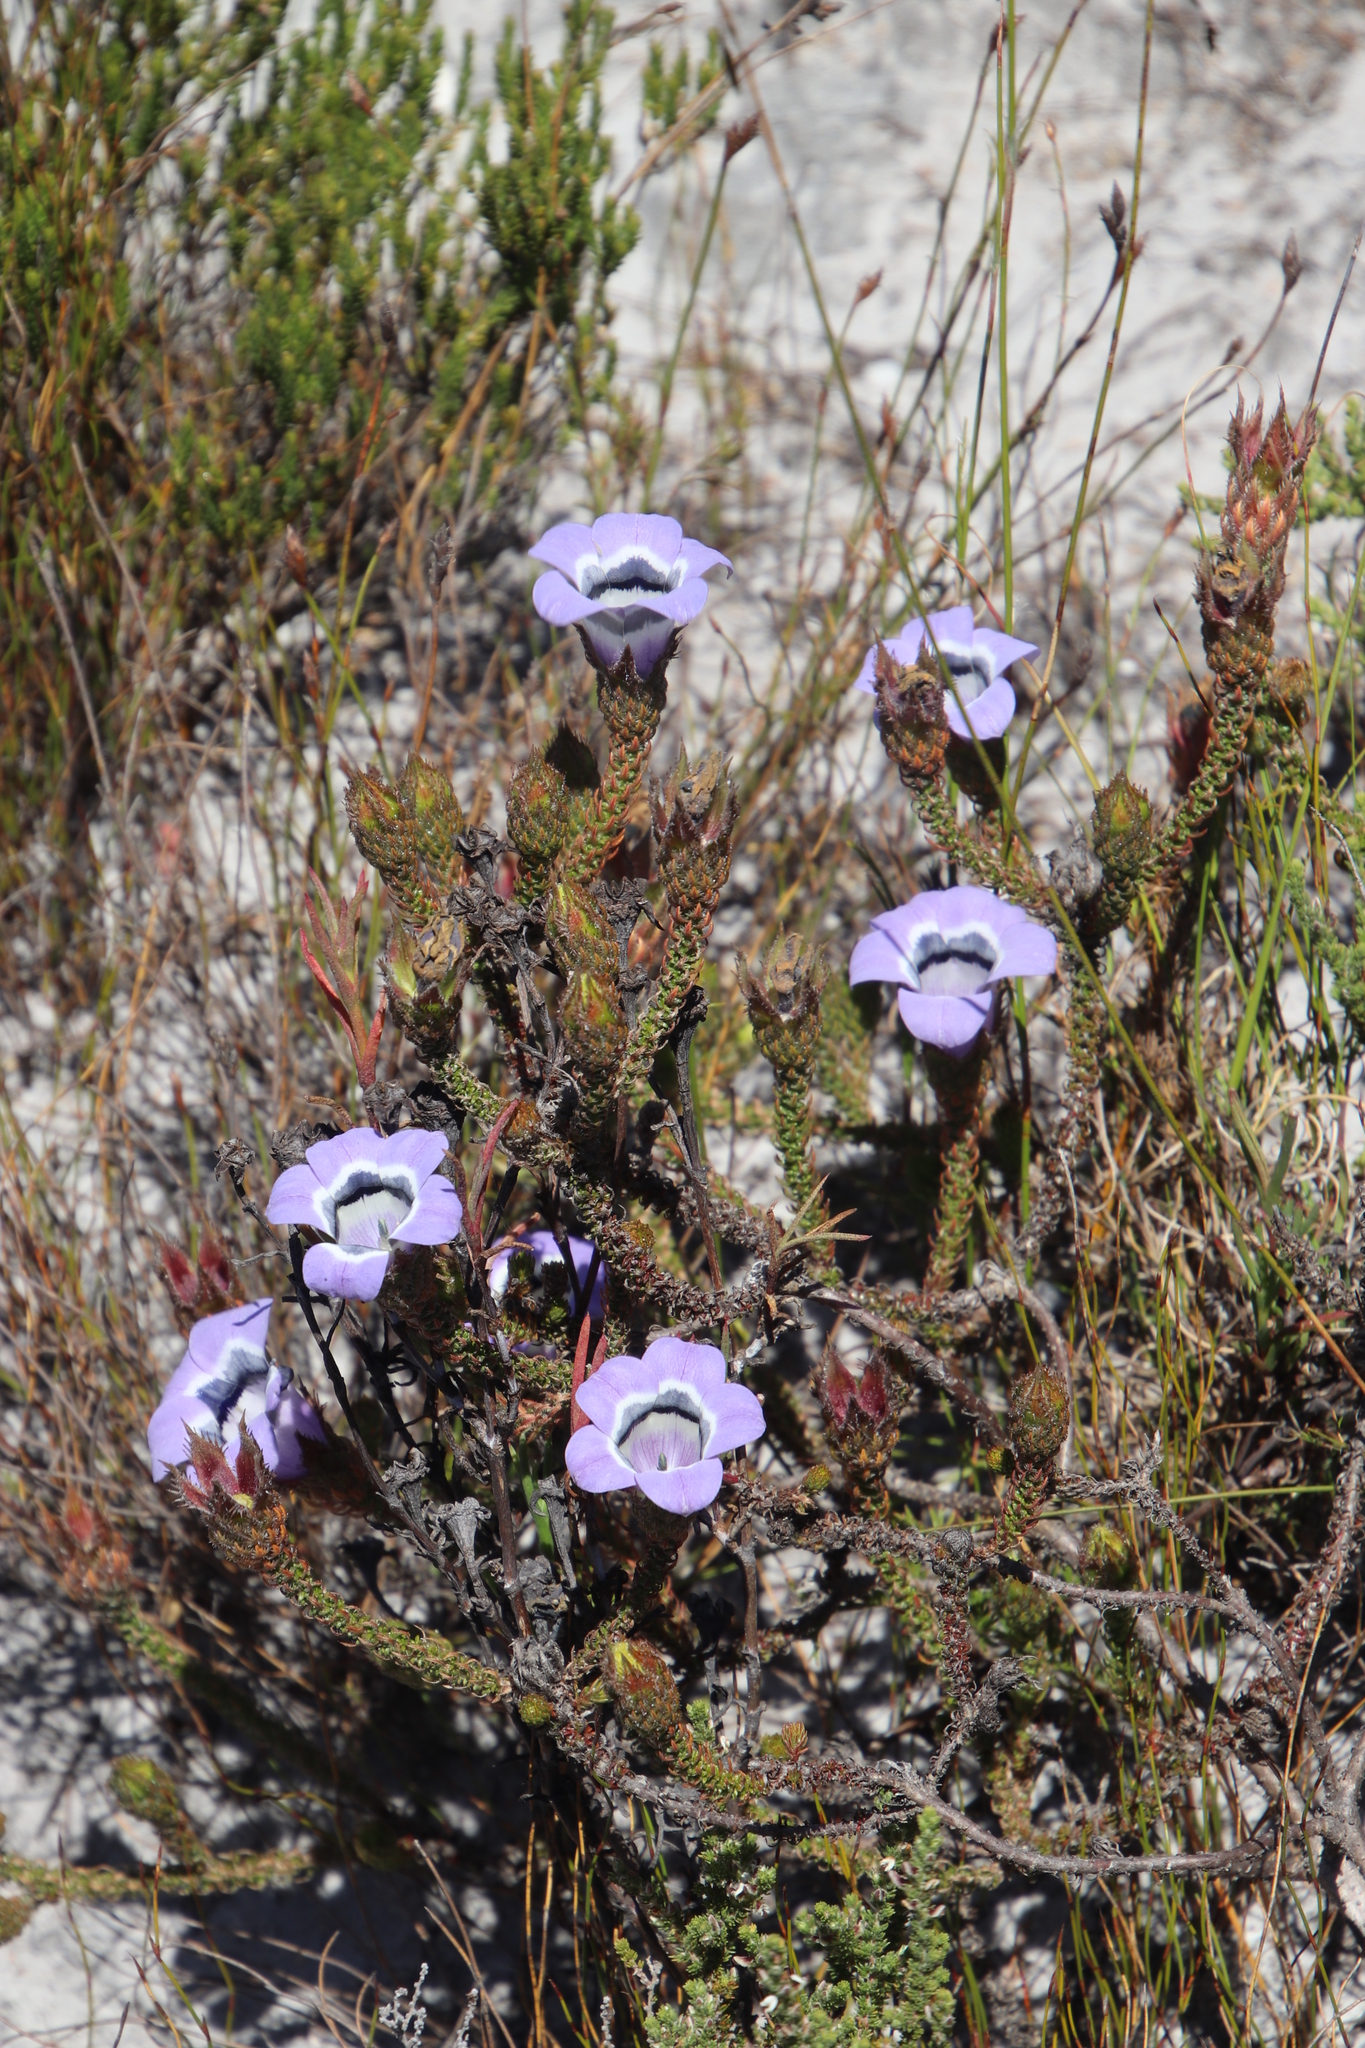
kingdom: Plantae
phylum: Tracheophyta
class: Magnoliopsida
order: Asterales
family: Campanulaceae
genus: Roella
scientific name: Roella ciliata
